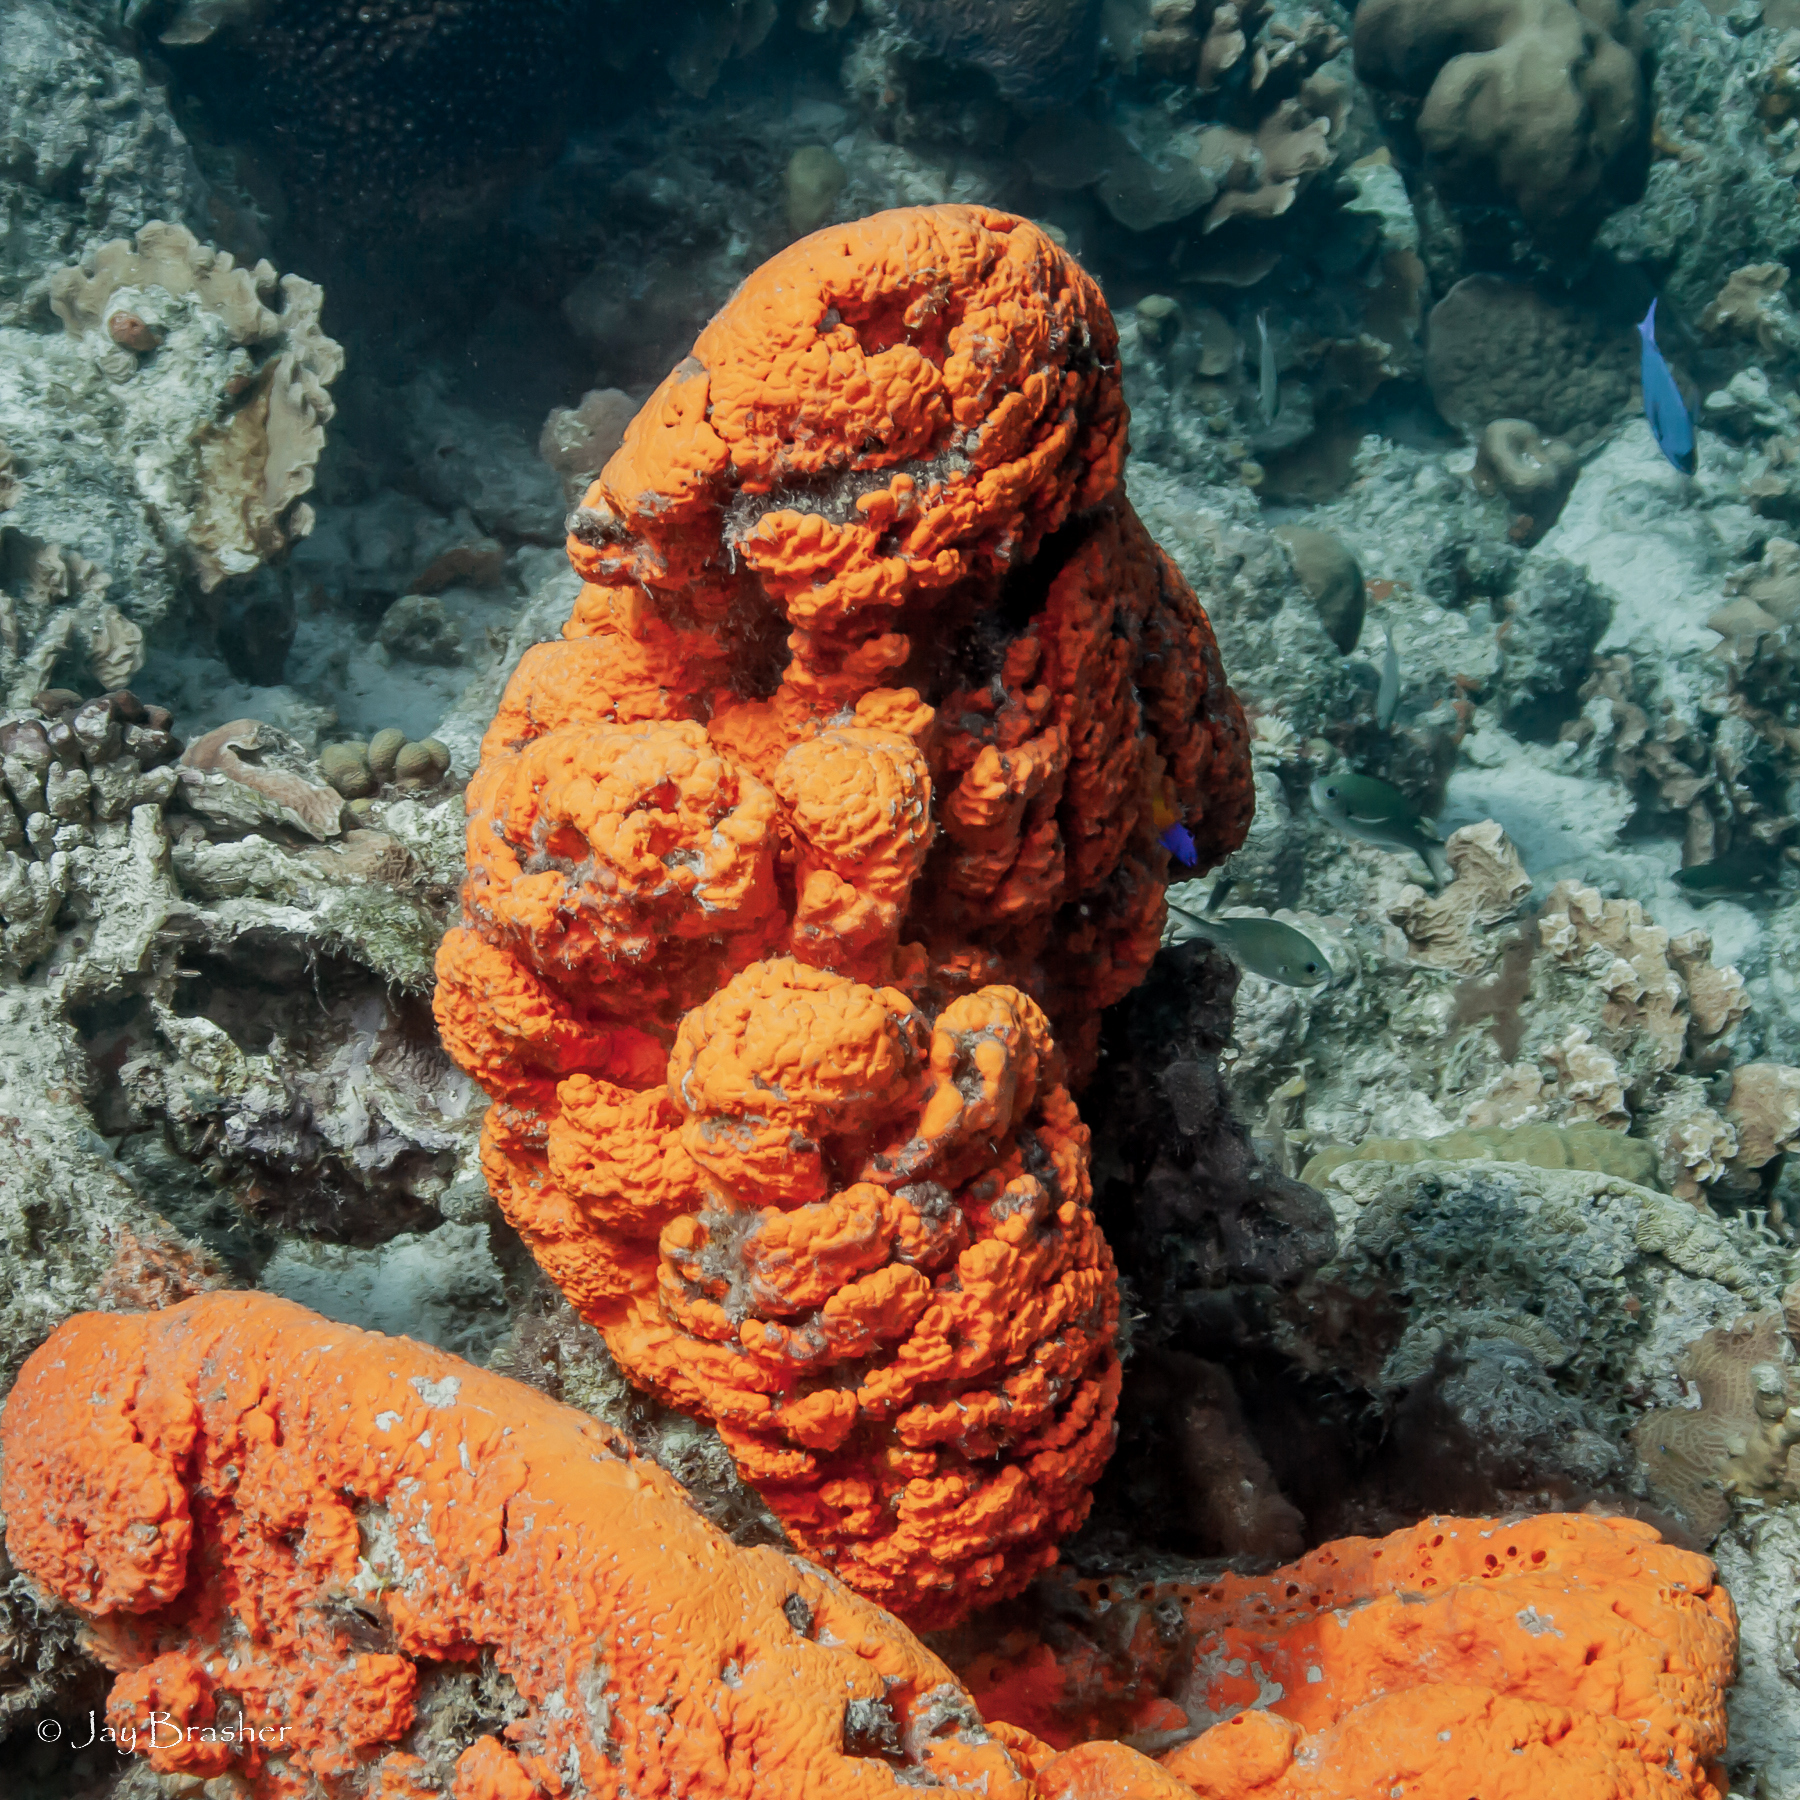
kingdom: Animalia
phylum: Porifera
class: Demospongiae
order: Agelasida
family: Agelasidae
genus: Agelas
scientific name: Agelas clathrodes
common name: Orange elephant ear sponge
